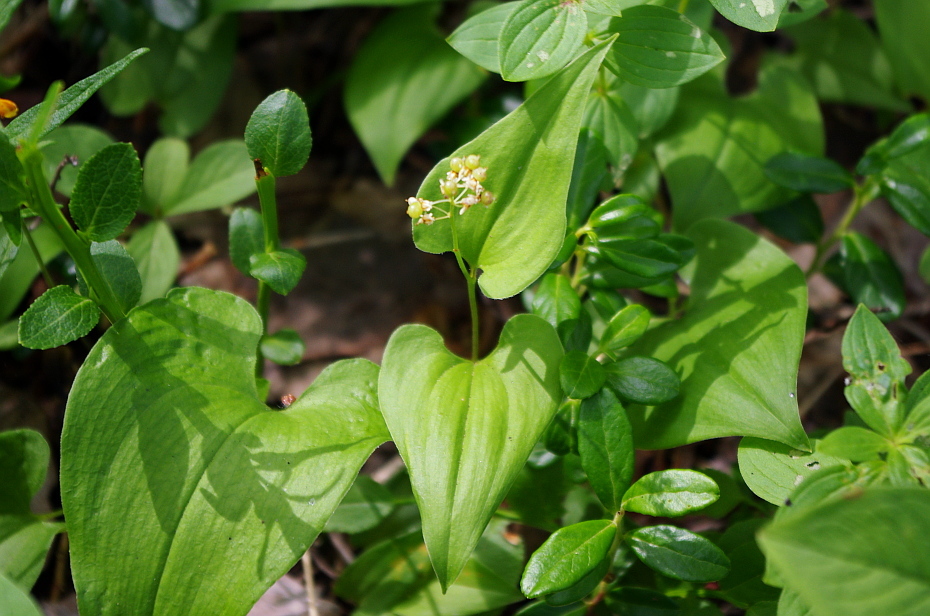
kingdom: Plantae
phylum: Tracheophyta
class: Liliopsida
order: Asparagales
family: Asparagaceae
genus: Maianthemum
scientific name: Maianthemum bifolium
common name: May lily
